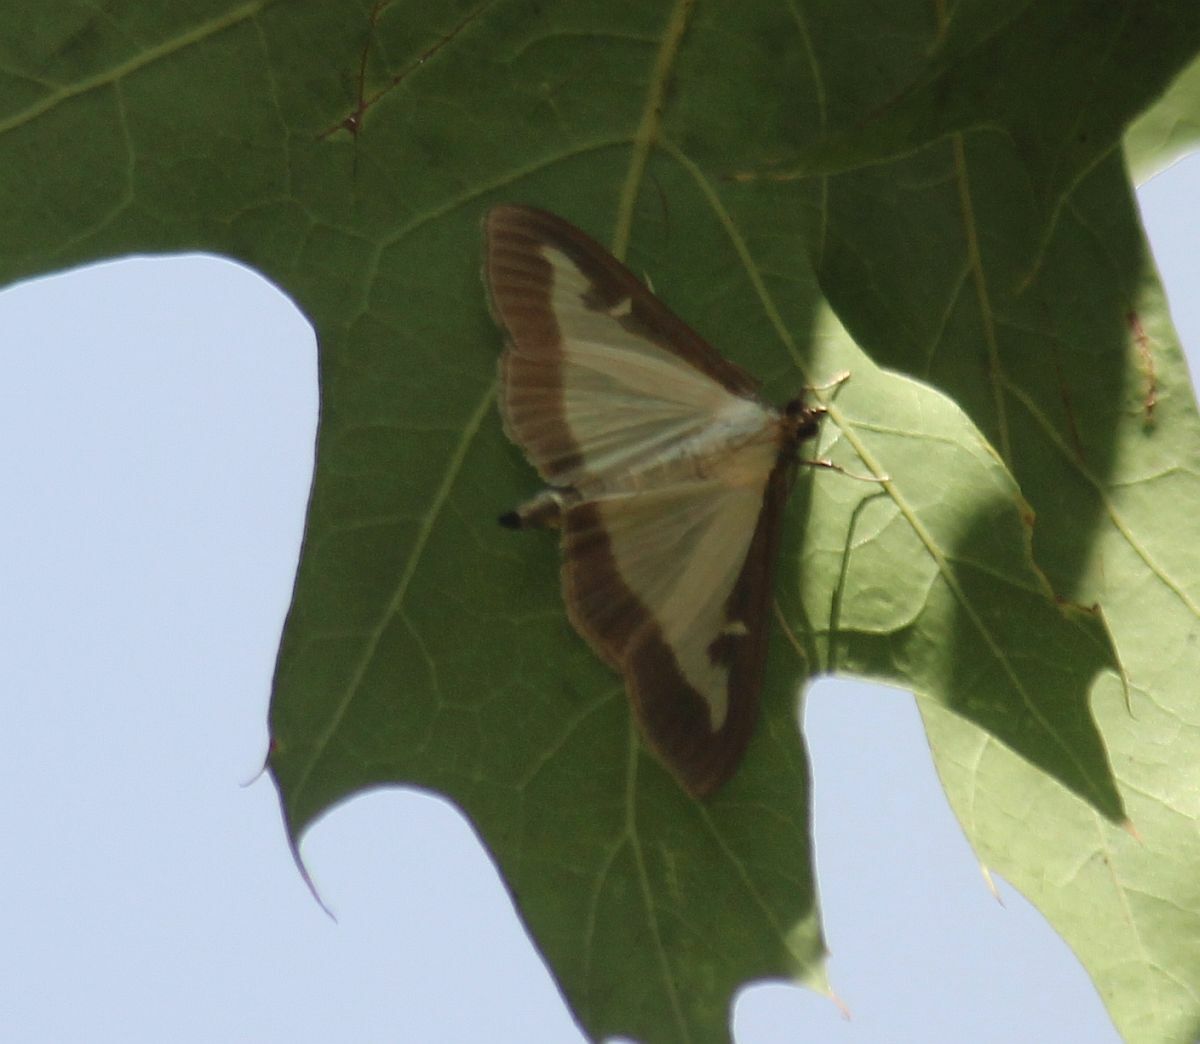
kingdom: Animalia
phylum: Arthropoda
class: Insecta
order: Lepidoptera
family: Crambidae
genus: Cydalima
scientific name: Cydalima perspectalis
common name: Box tree moth
